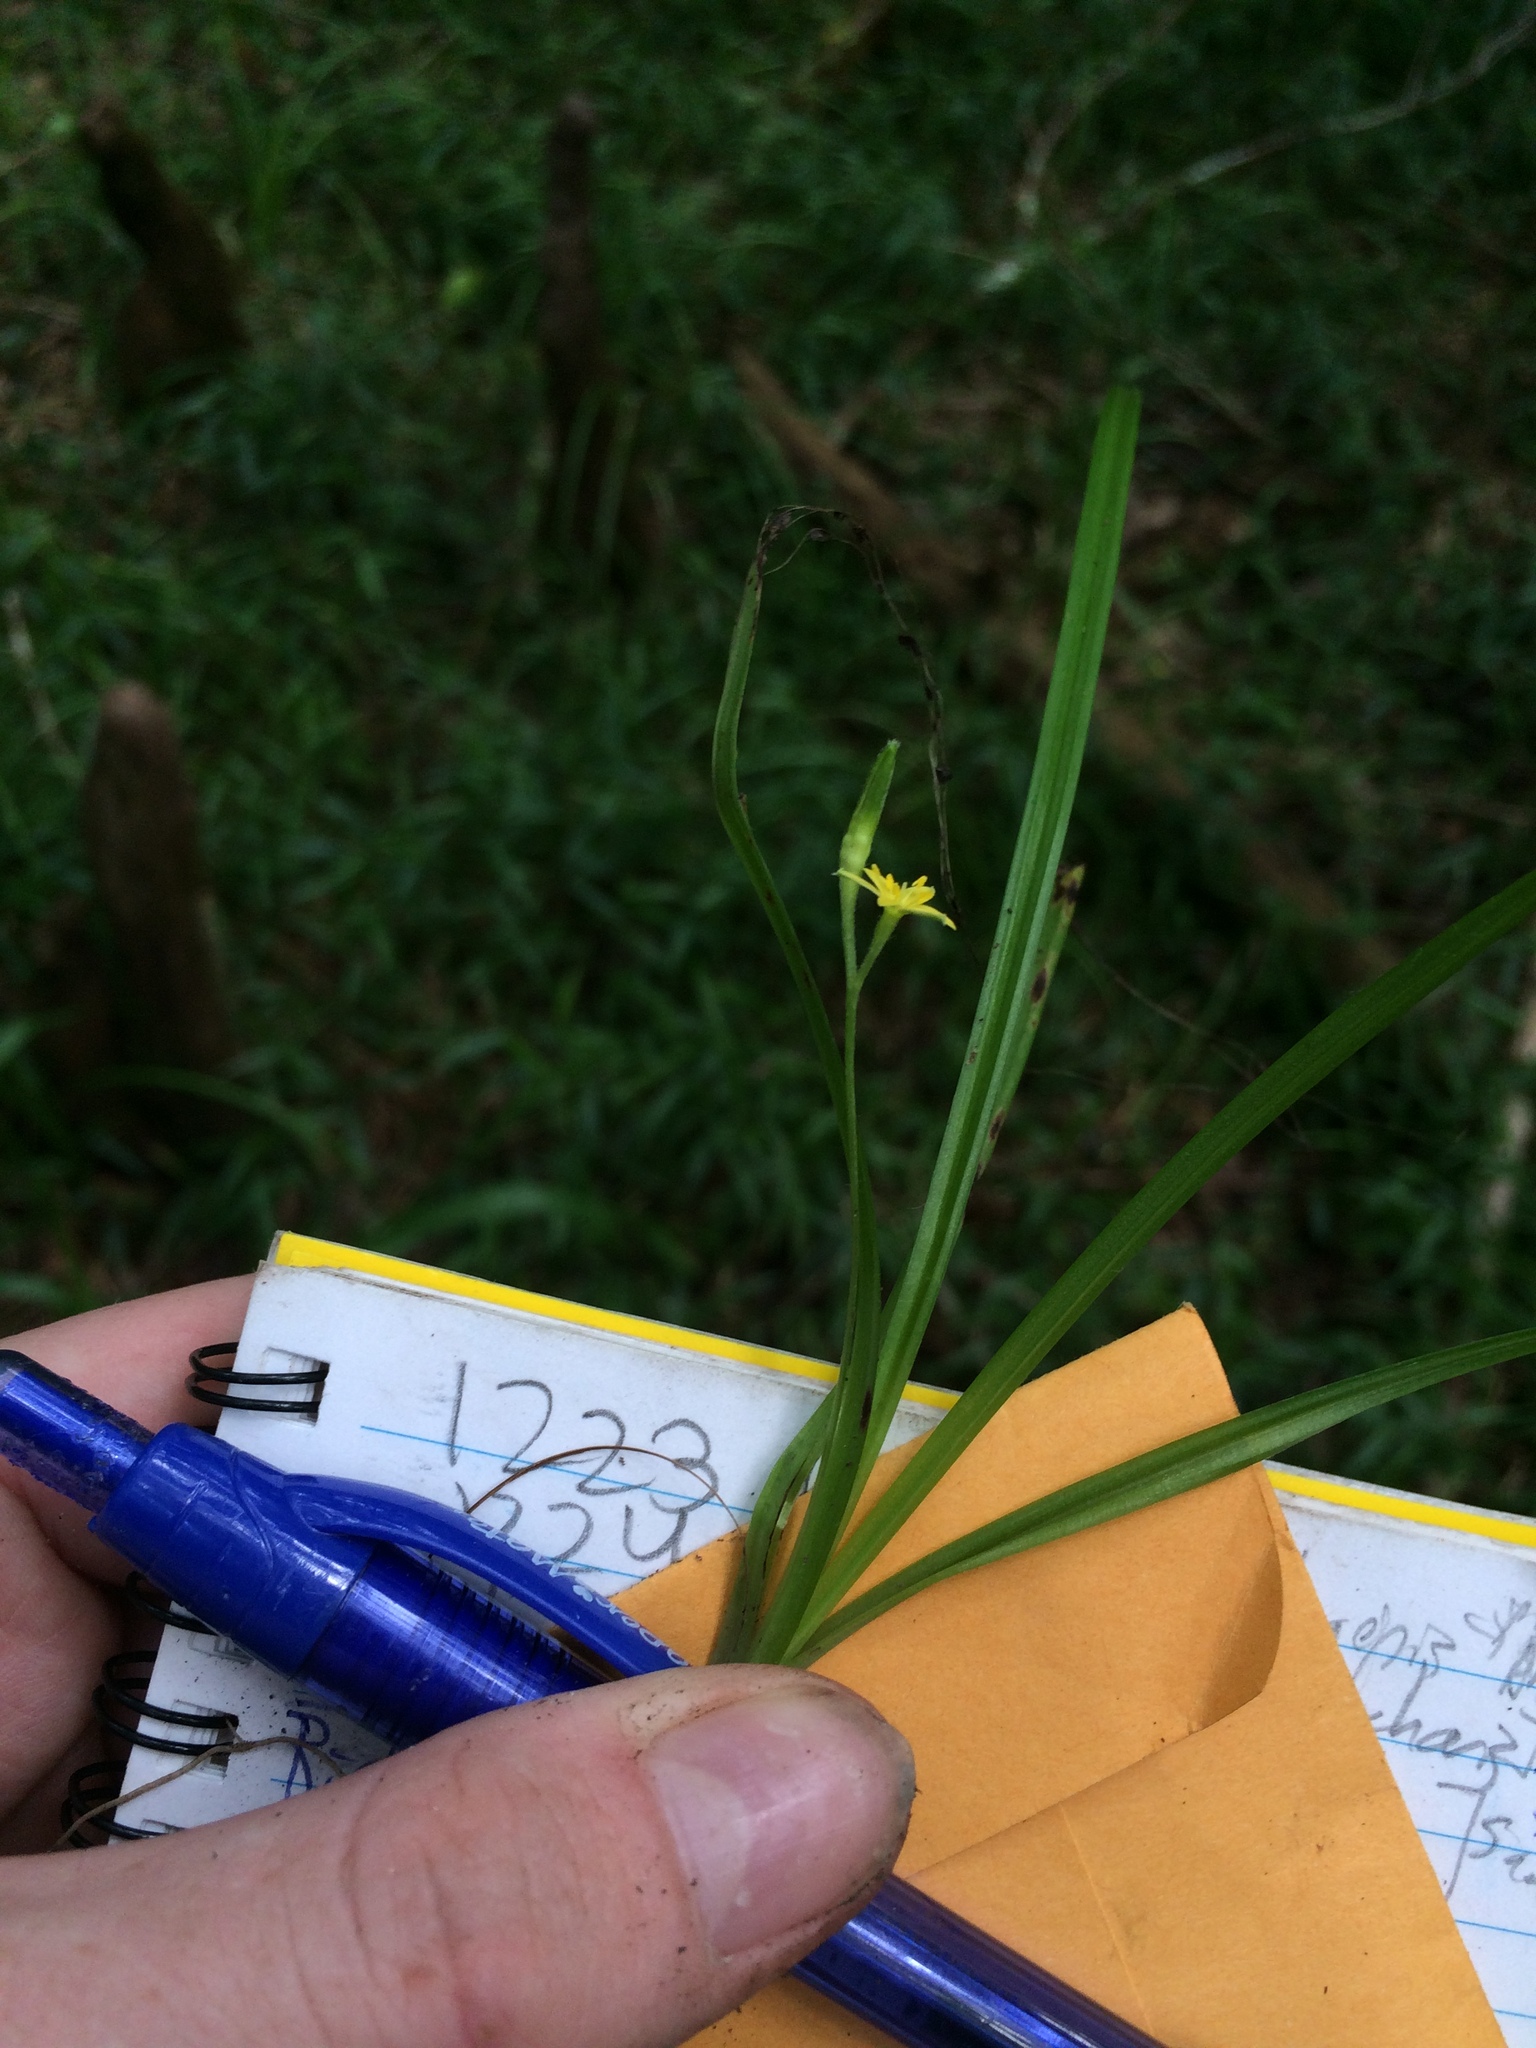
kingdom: Plantae
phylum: Tracheophyta
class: Liliopsida
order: Asparagales
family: Hypoxidaceae
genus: Hypoxis
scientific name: Hypoxis curtissii
